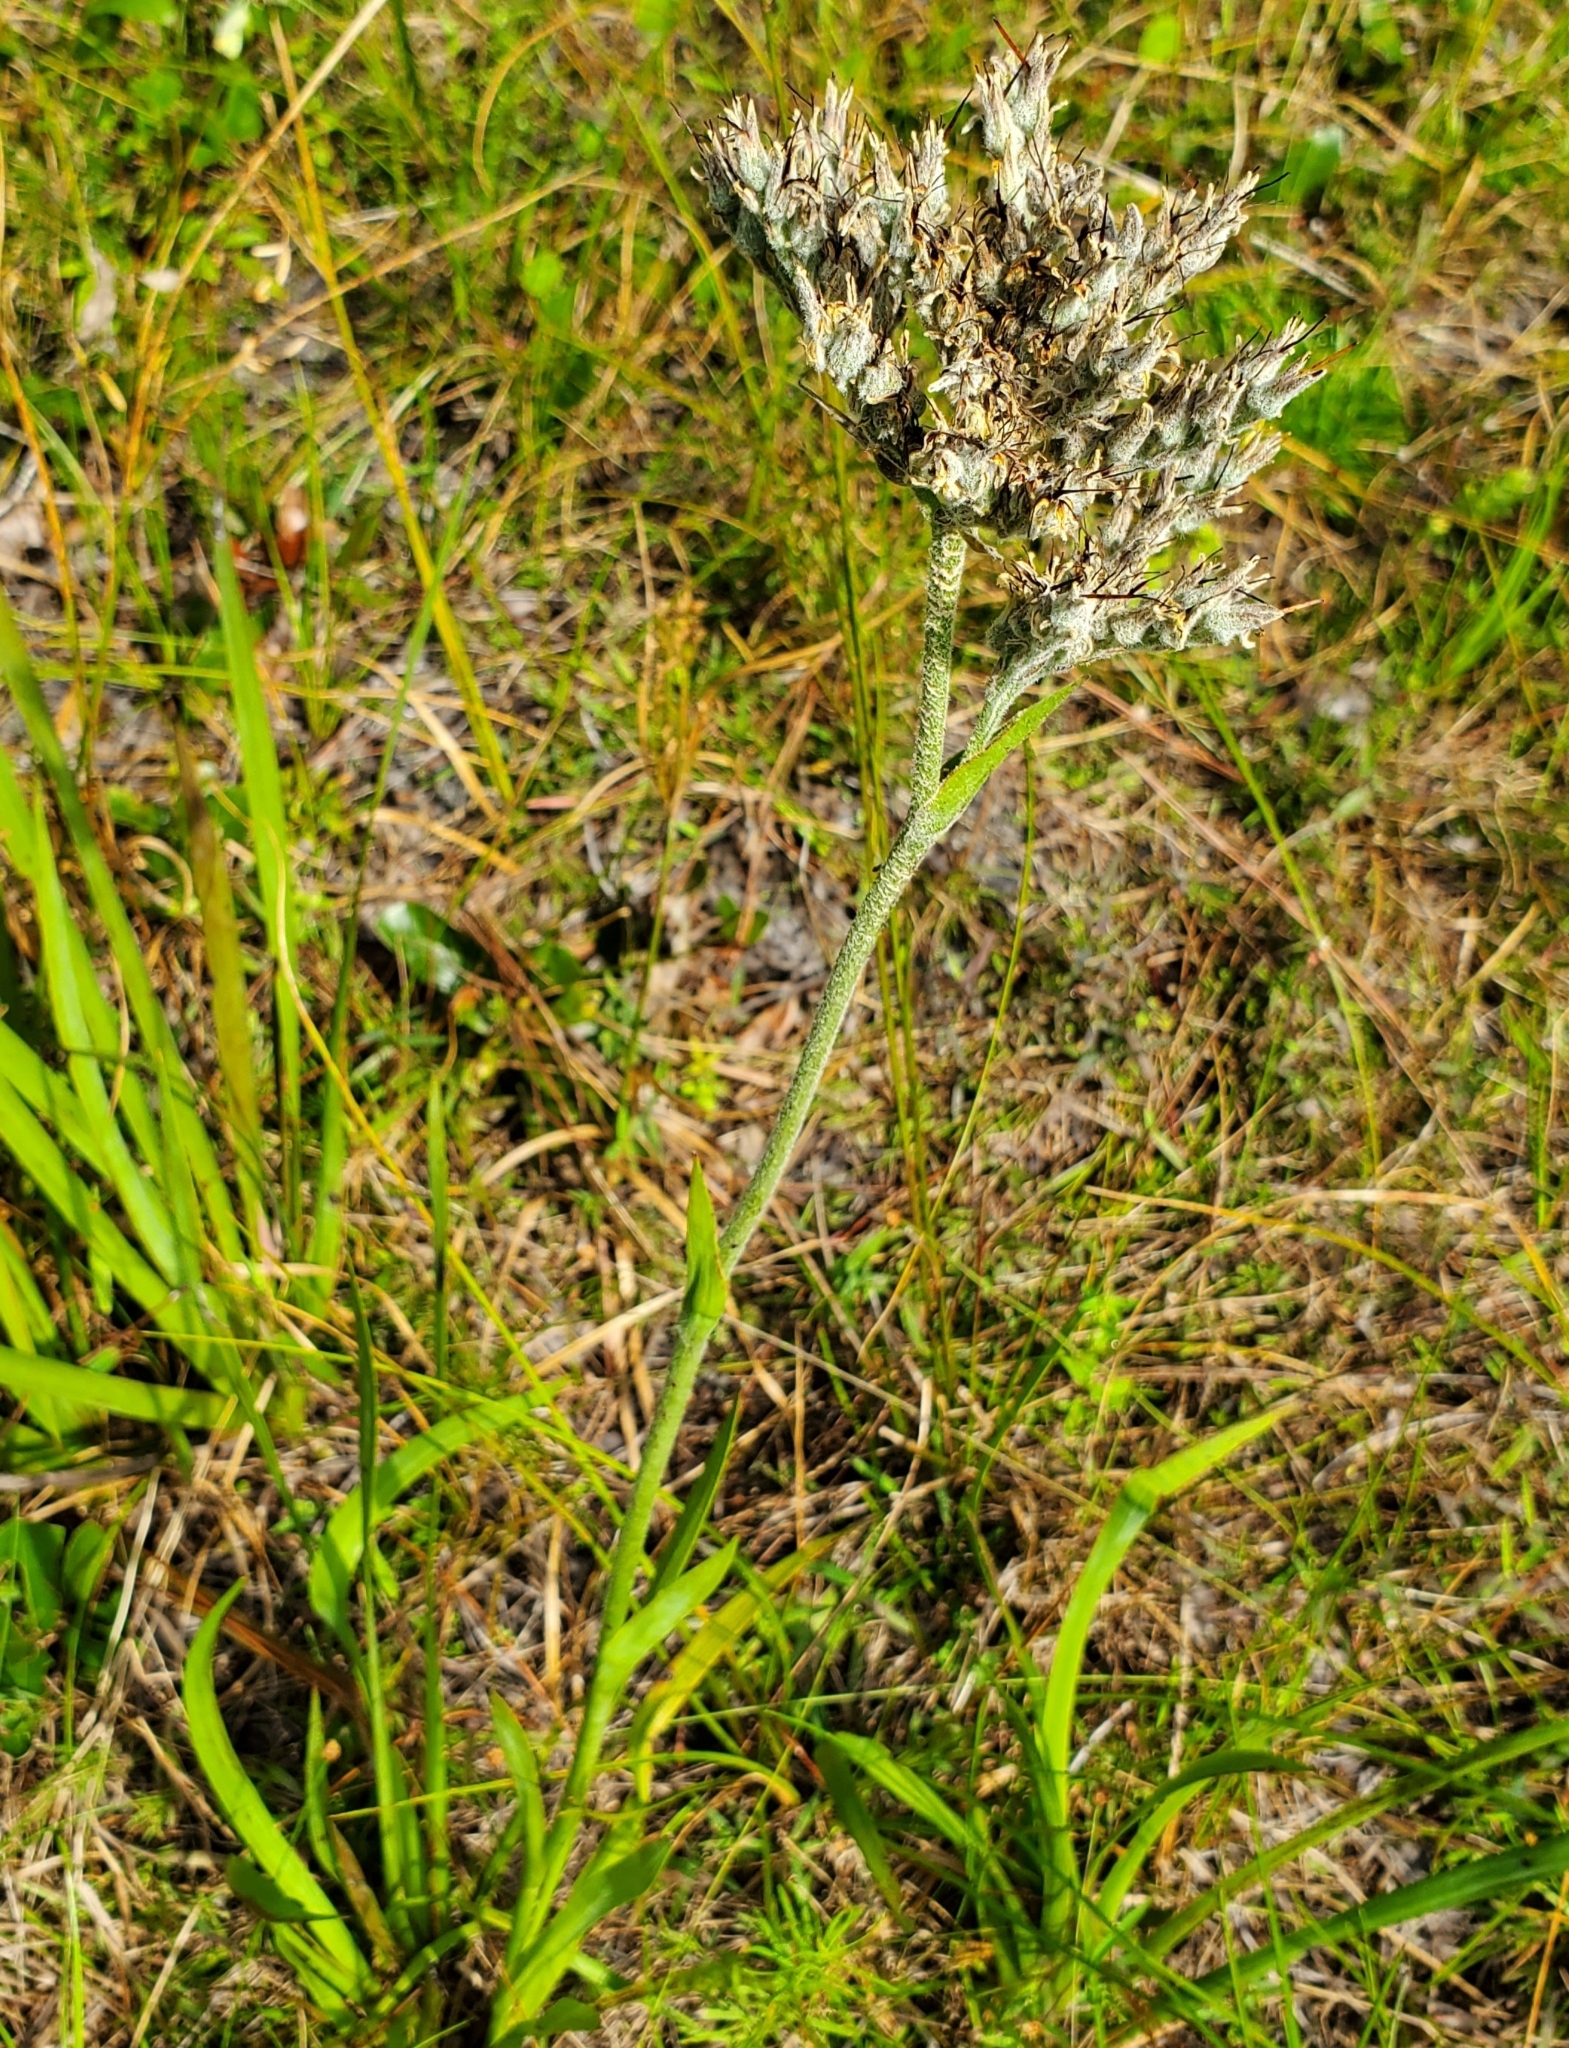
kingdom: Plantae
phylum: Tracheophyta
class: Liliopsida
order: Commelinales
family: Haemodoraceae
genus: Lachnanthes
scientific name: Lachnanthes caroliana
